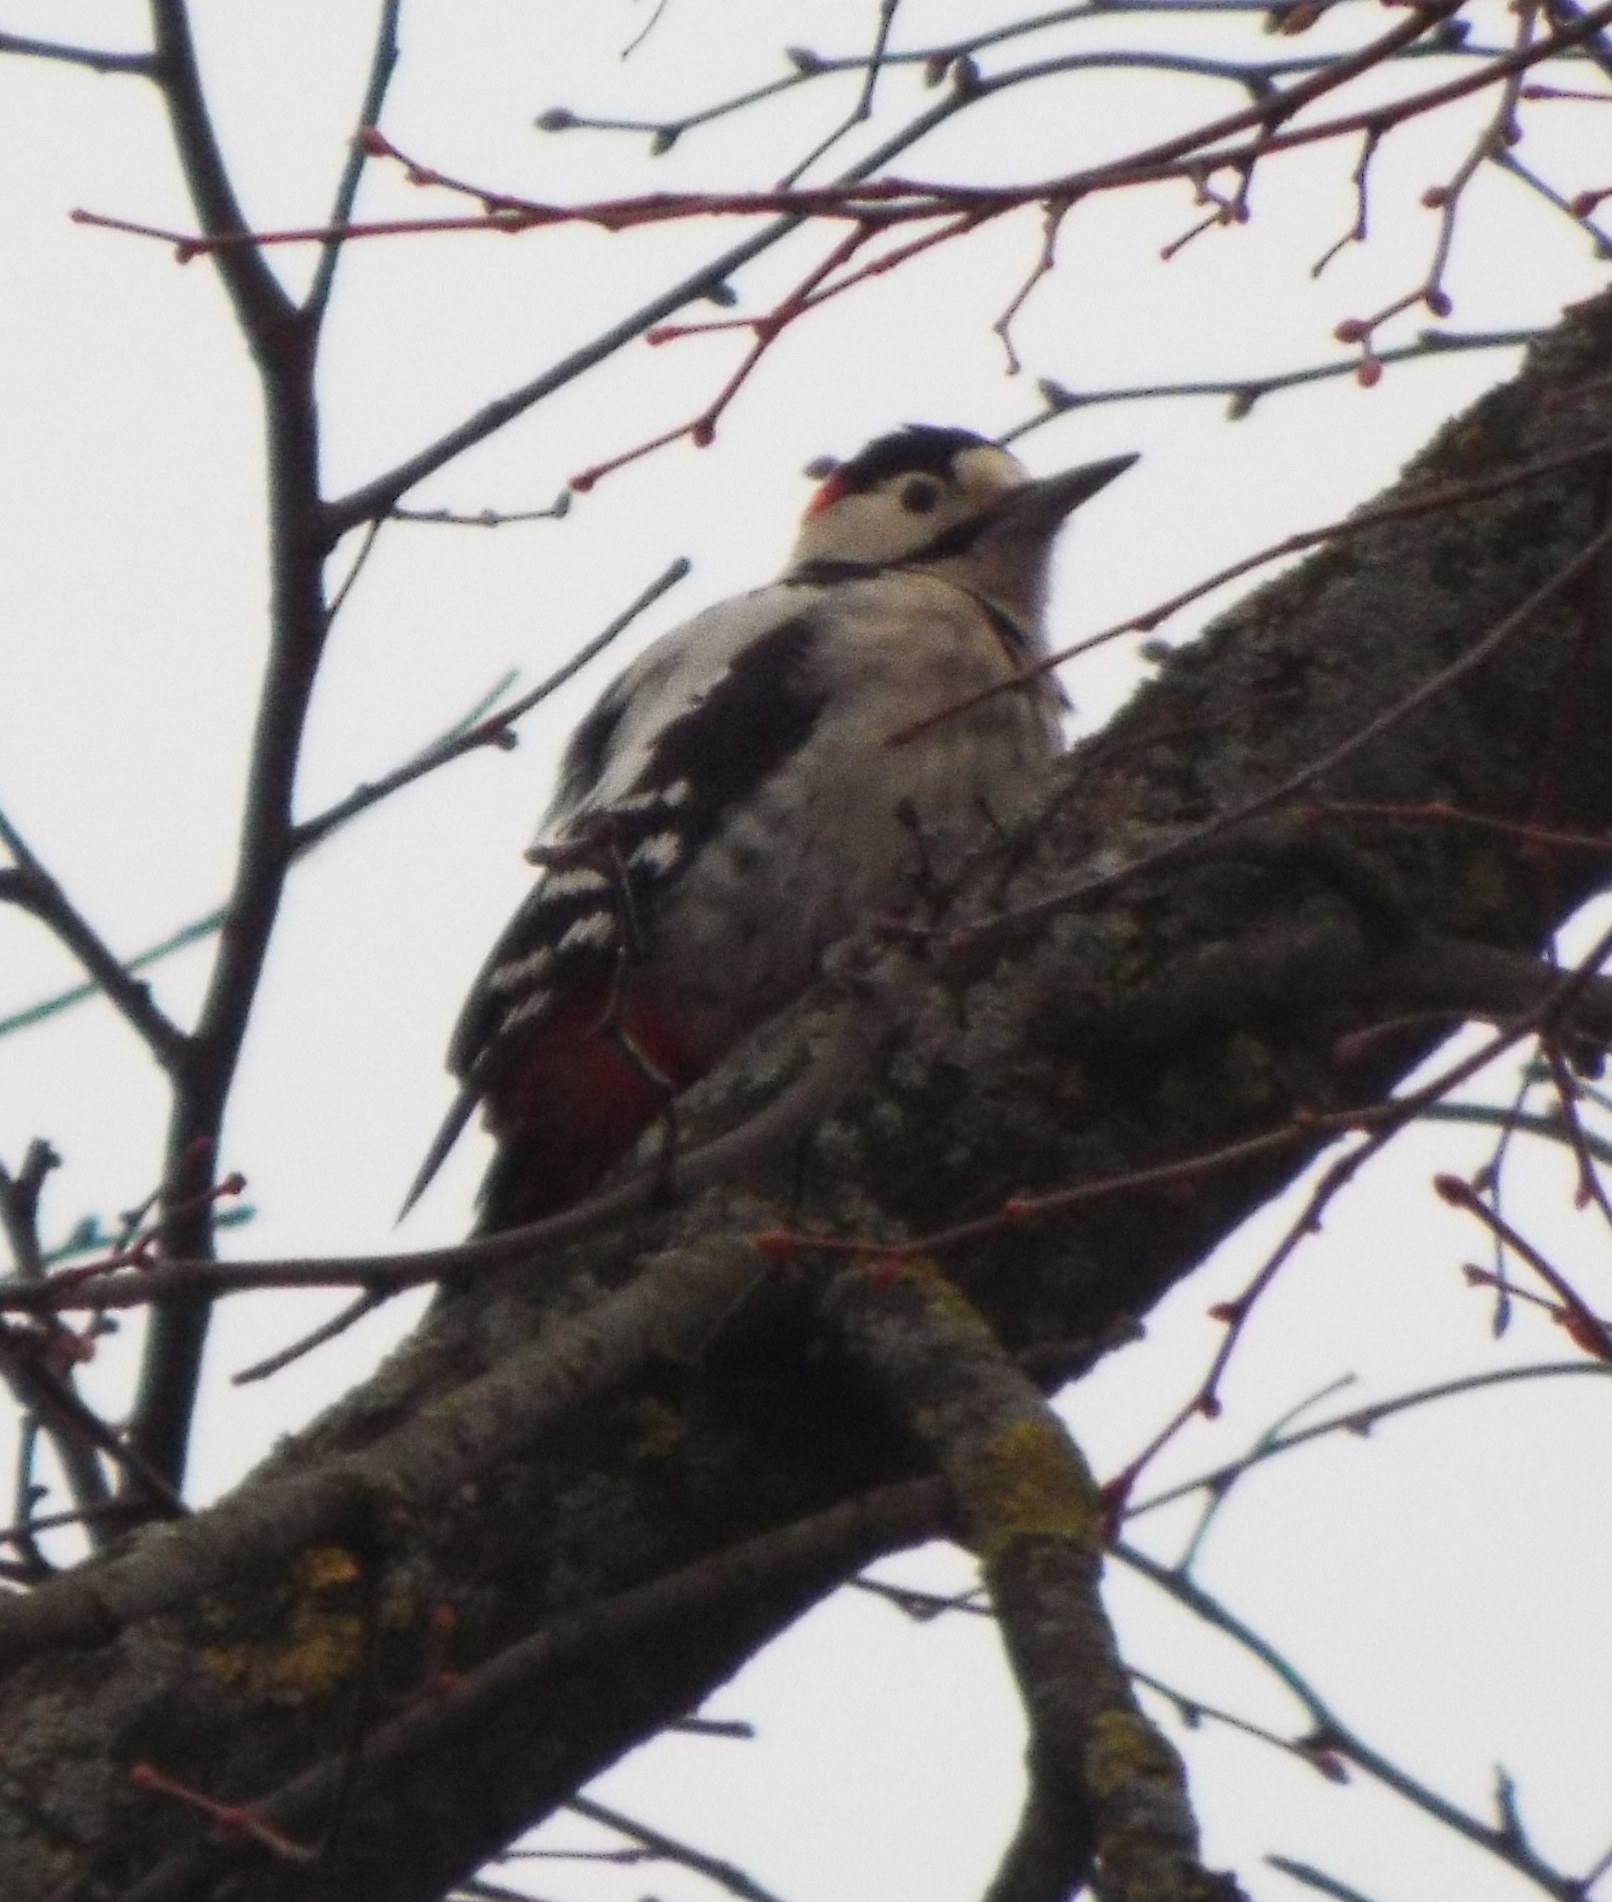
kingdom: Animalia
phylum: Chordata
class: Aves
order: Piciformes
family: Picidae
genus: Dendrocopos
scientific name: Dendrocopos syriacus
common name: Syrian woodpecker
